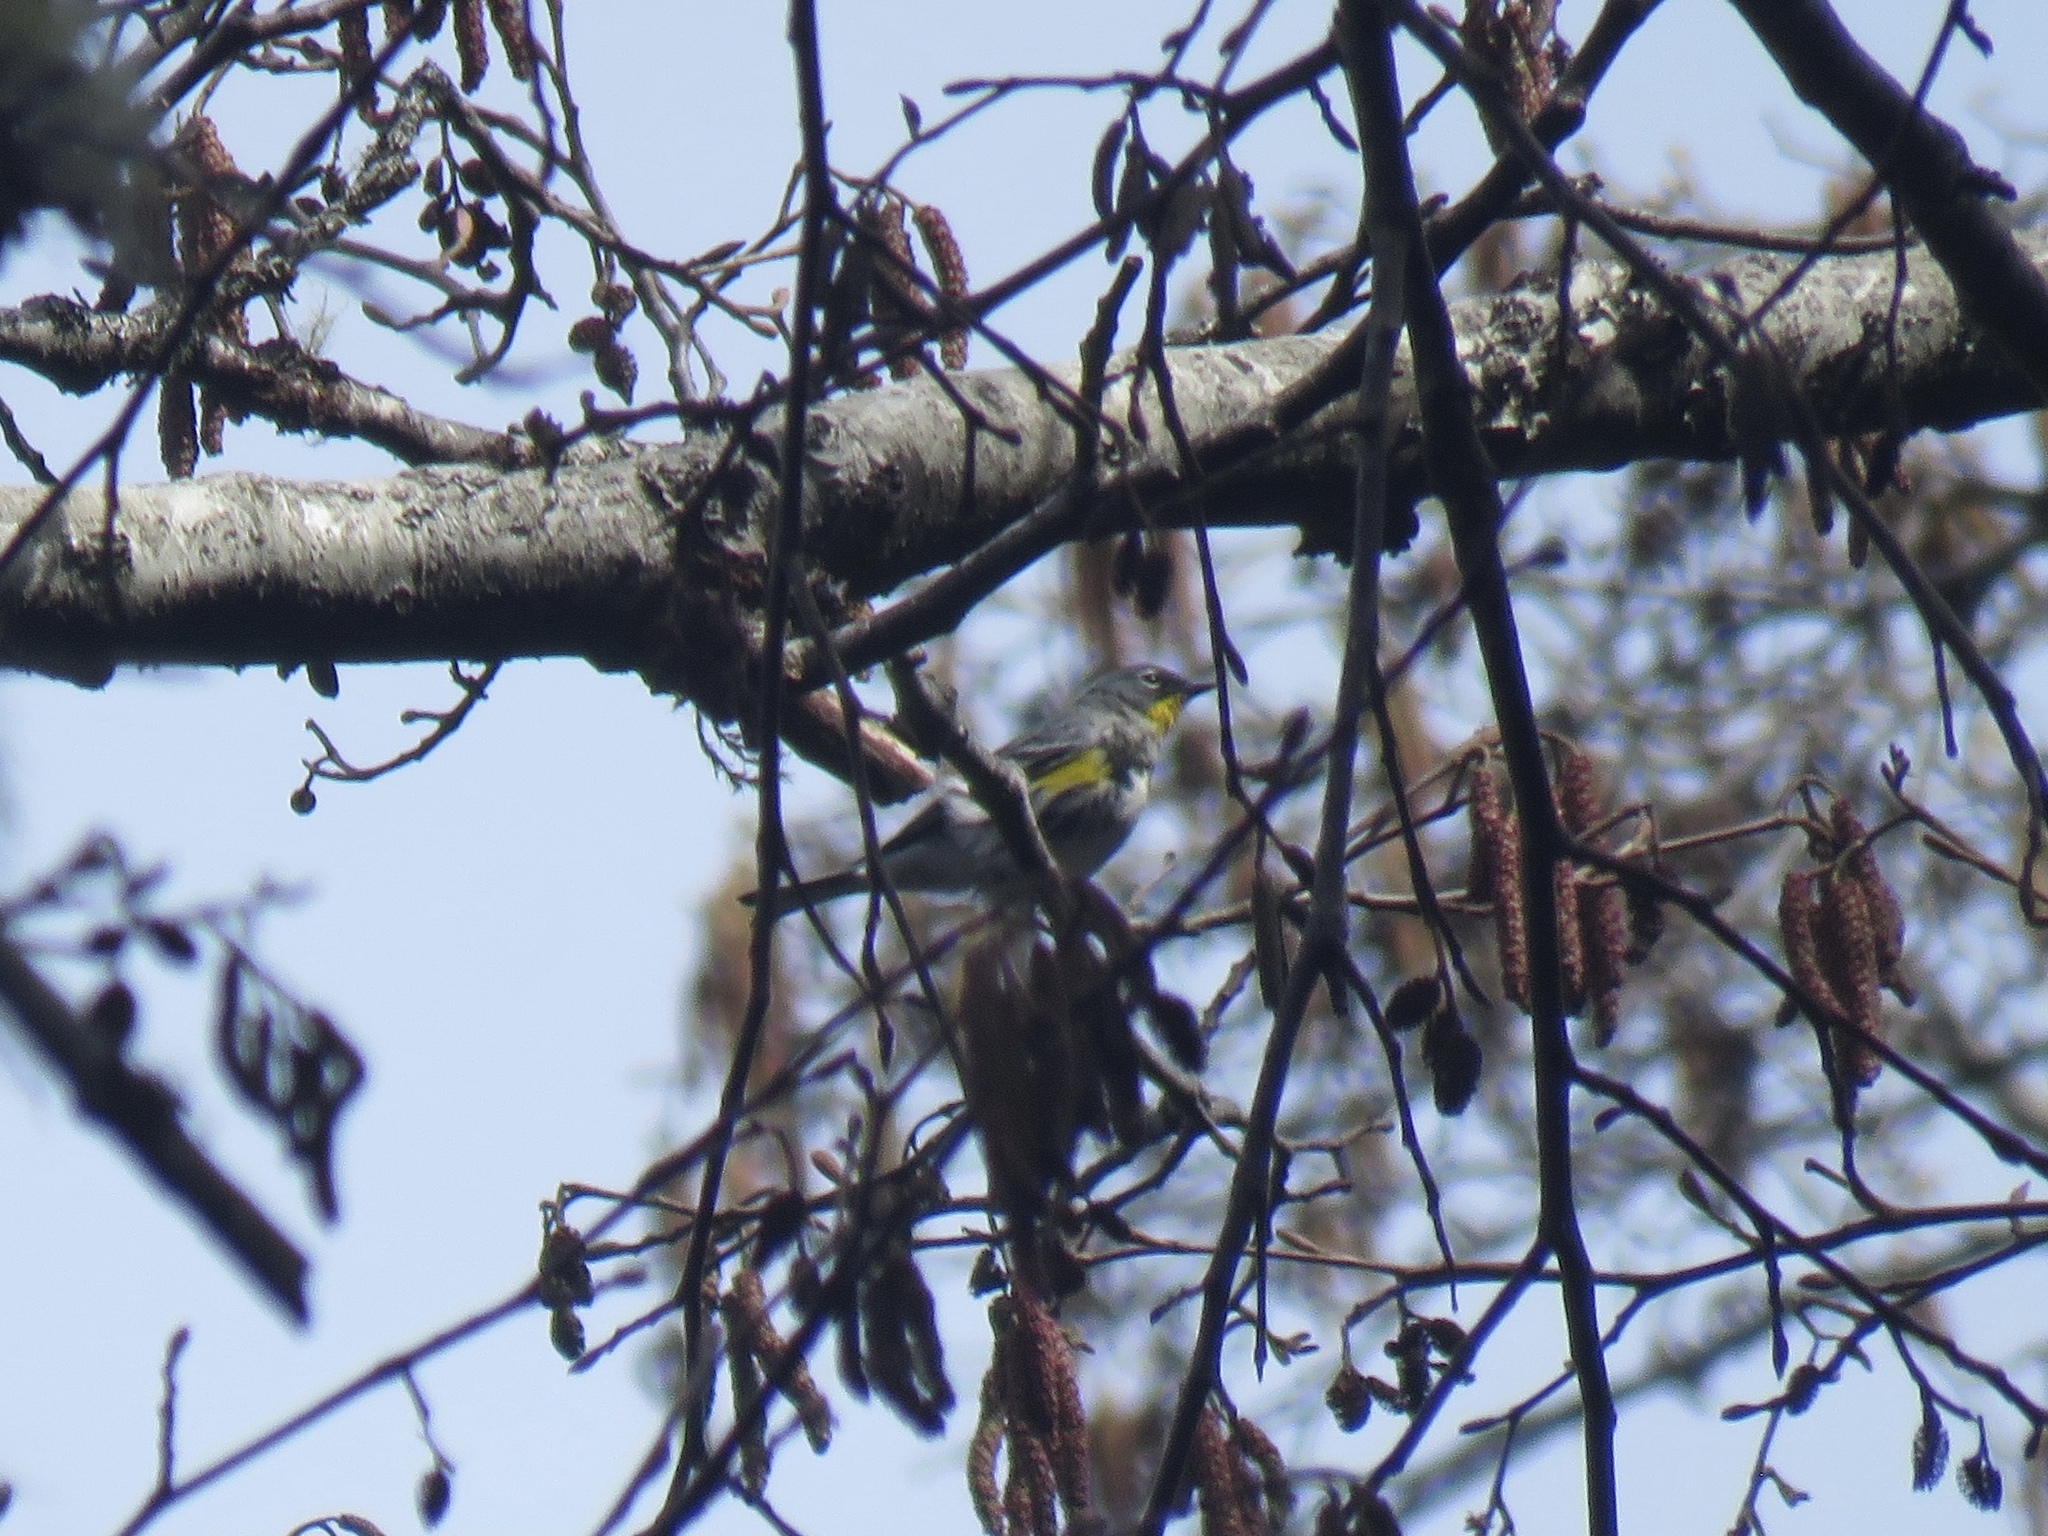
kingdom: Animalia
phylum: Chordata
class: Aves
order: Passeriformes
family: Parulidae
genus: Setophaga
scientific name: Setophaga coronata
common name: Myrtle warbler
